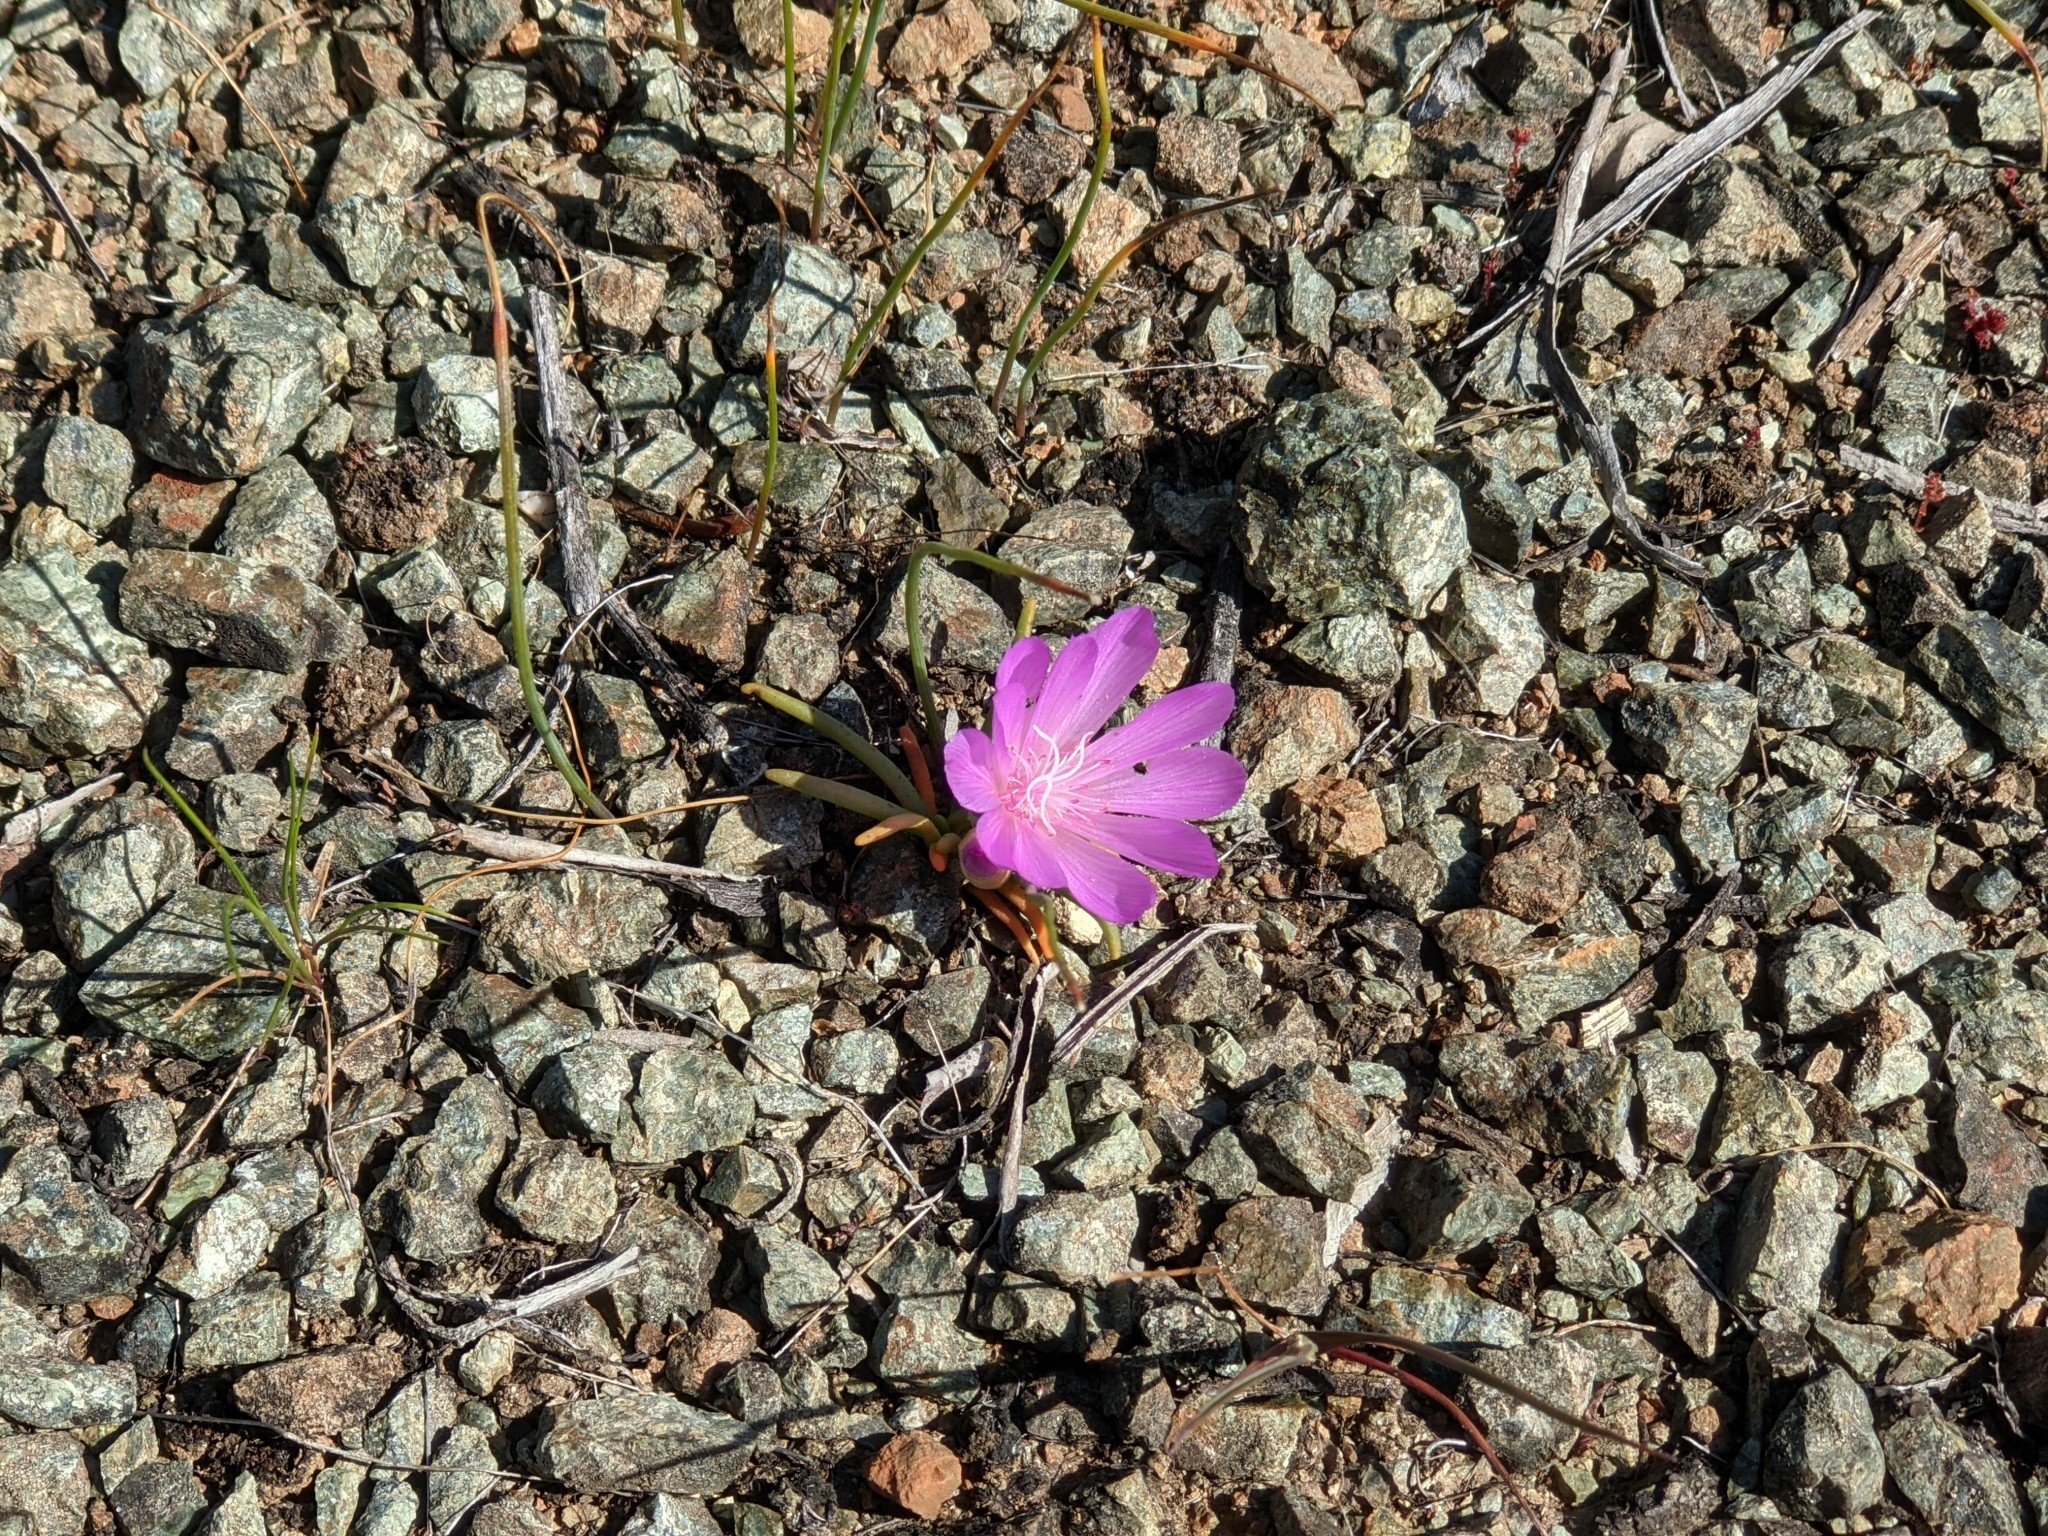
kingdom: Plantae
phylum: Tracheophyta
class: Magnoliopsida
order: Caryophyllales
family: Montiaceae
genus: Lewisia
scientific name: Lewisia rediviva
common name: Bitter-root
